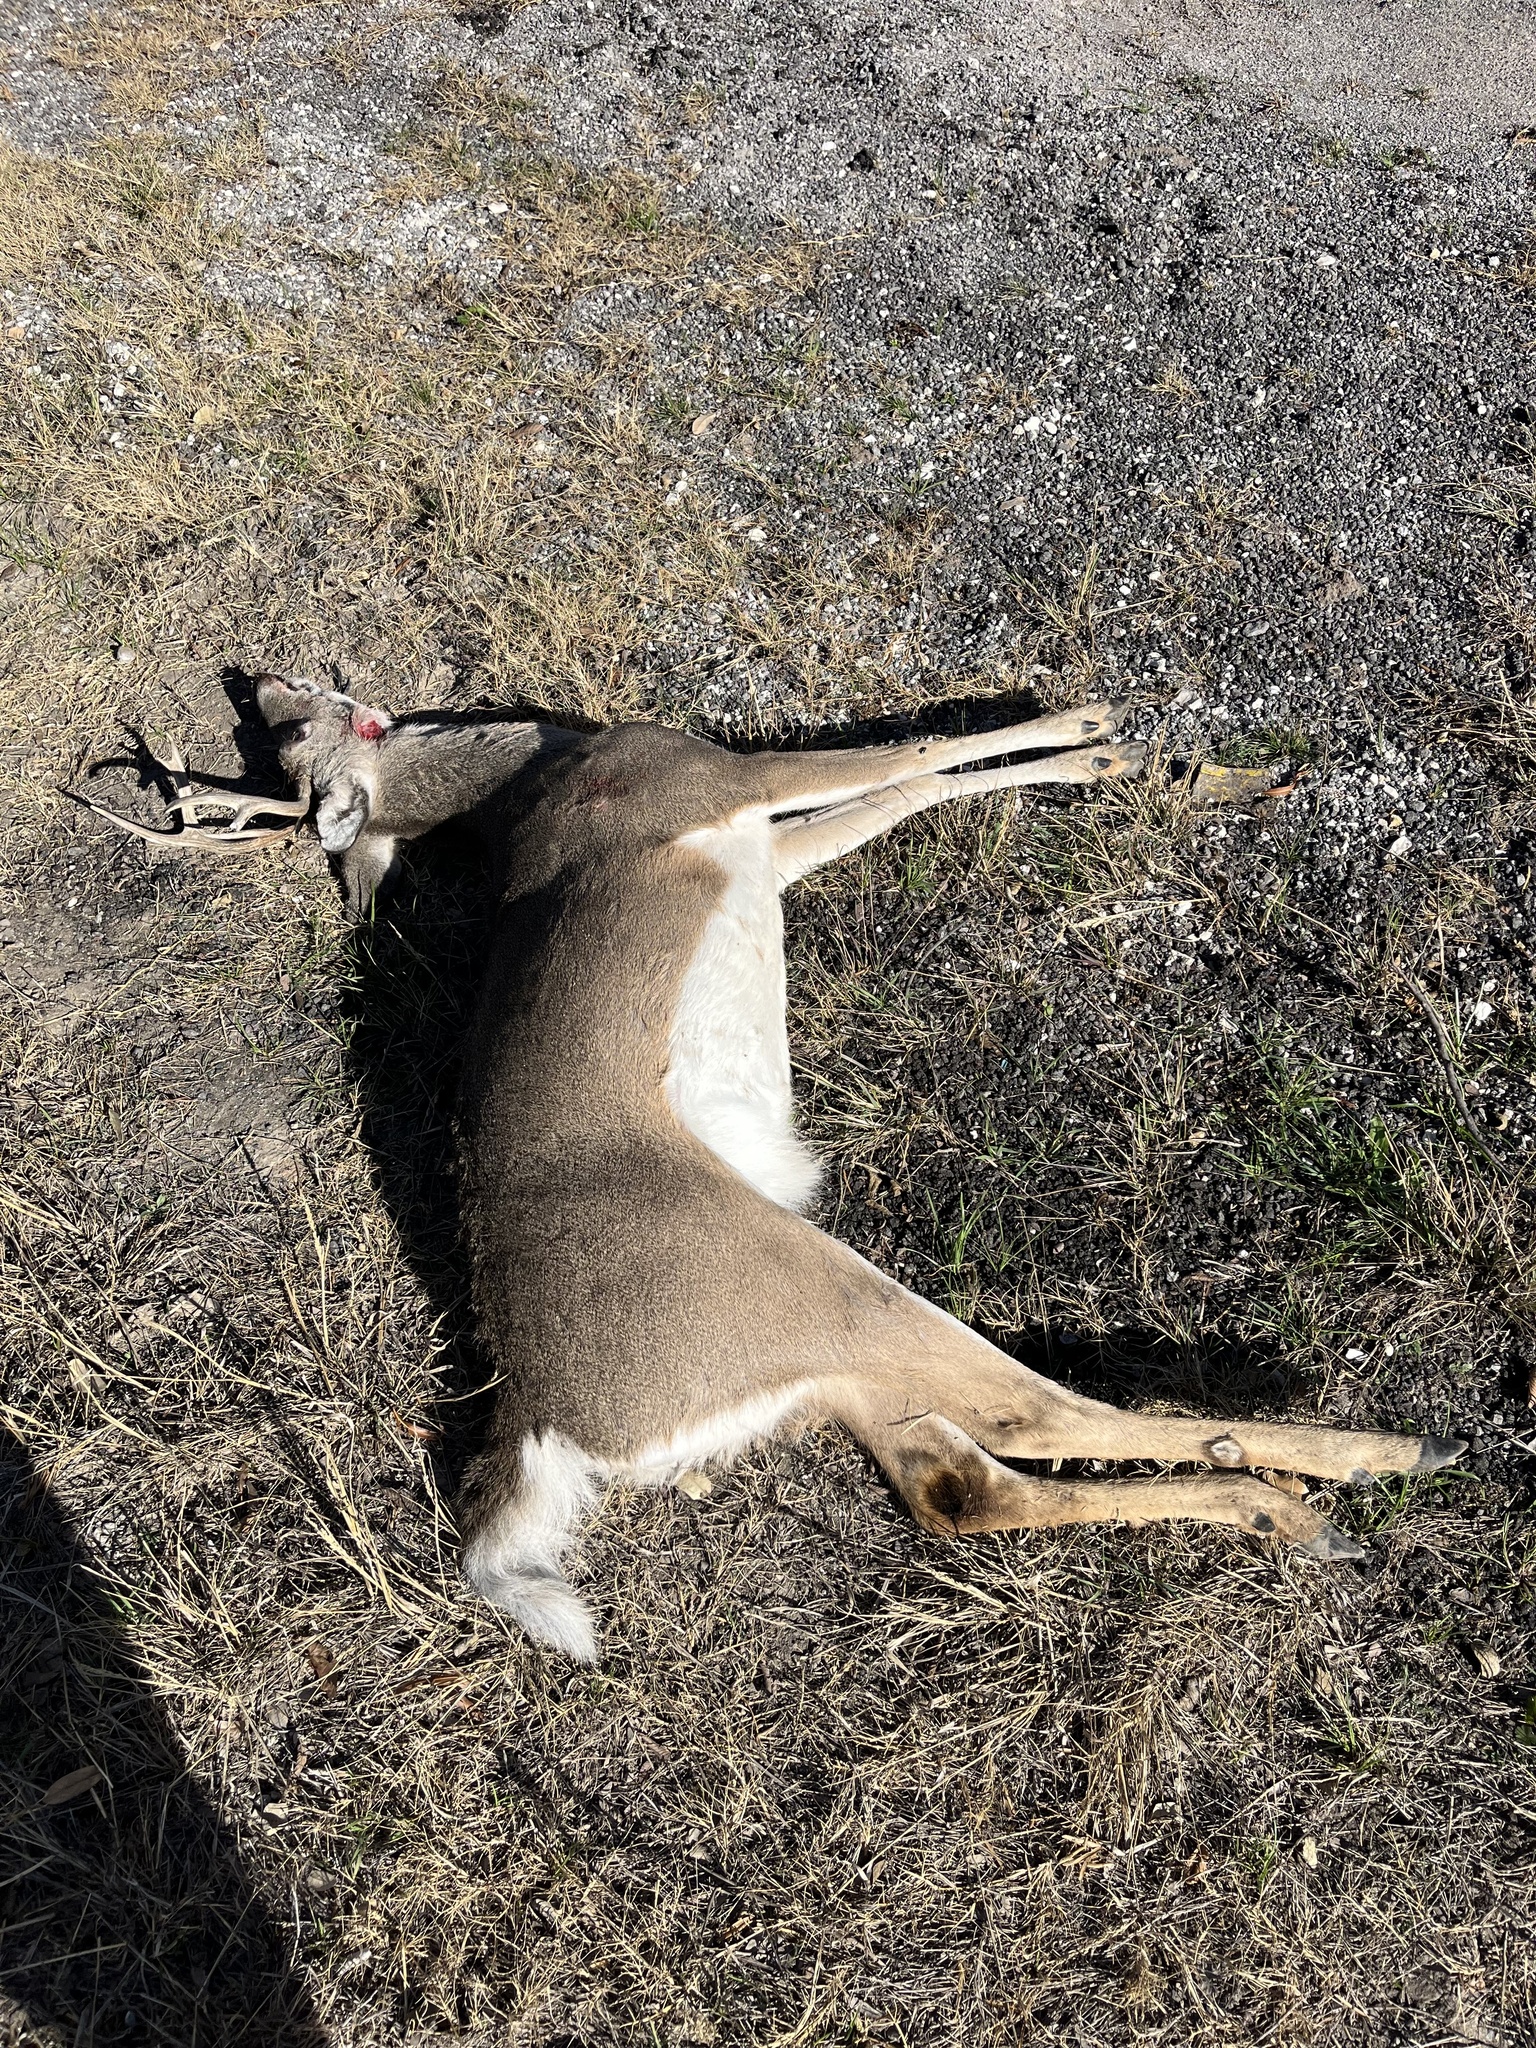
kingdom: Animalia
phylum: Chordata
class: Mammalia
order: Artiodactyla
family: Cervidae
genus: Odocoileus
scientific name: Odocoileus virginianus
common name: White-tailed deer
